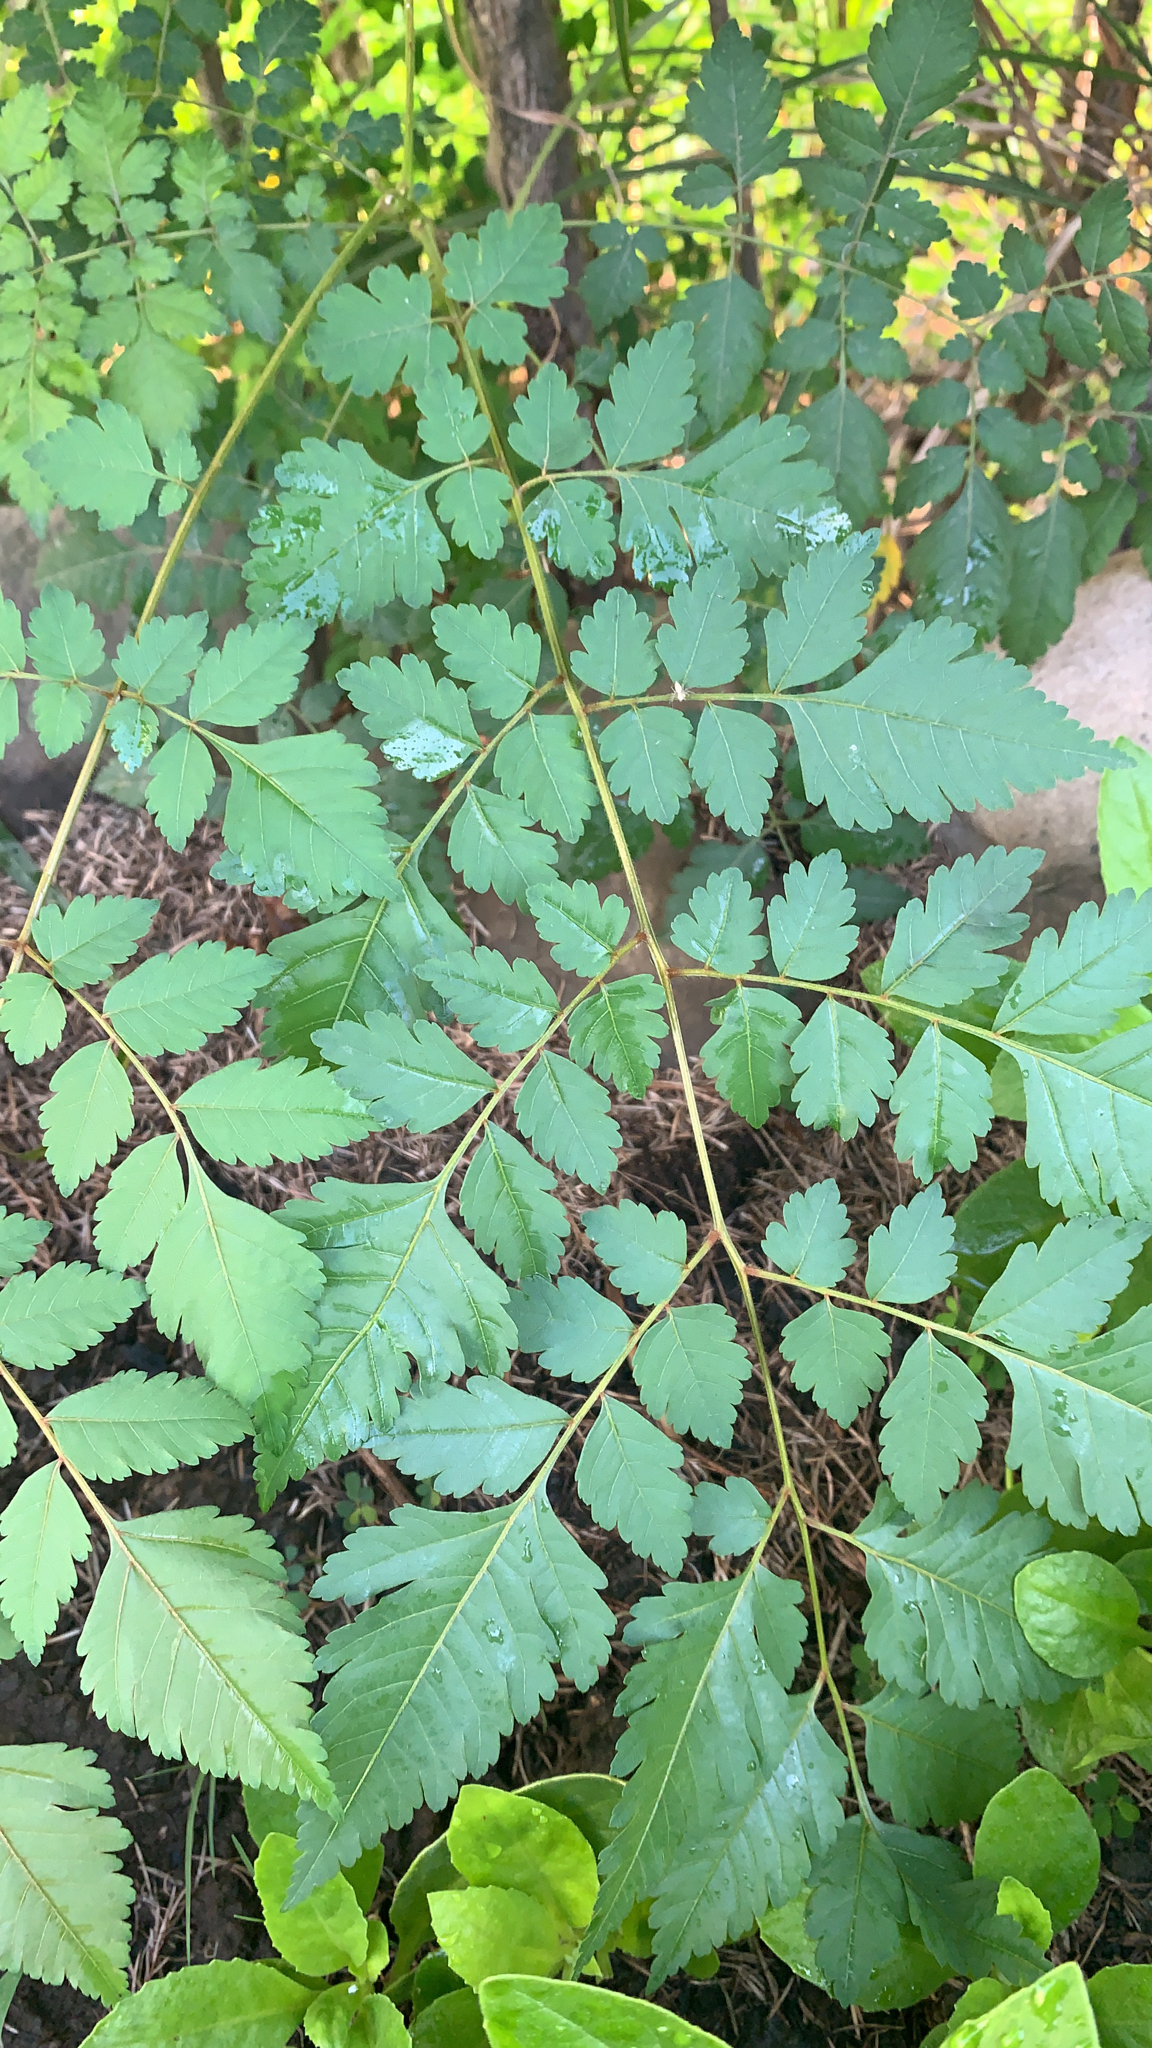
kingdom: Plantae
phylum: Tracheophyta
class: Magnoliopsida
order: Sapindales
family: Sapindaceae
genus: Koelreuteria
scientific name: Koelreuteria elegans
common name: Chinese flame tree
